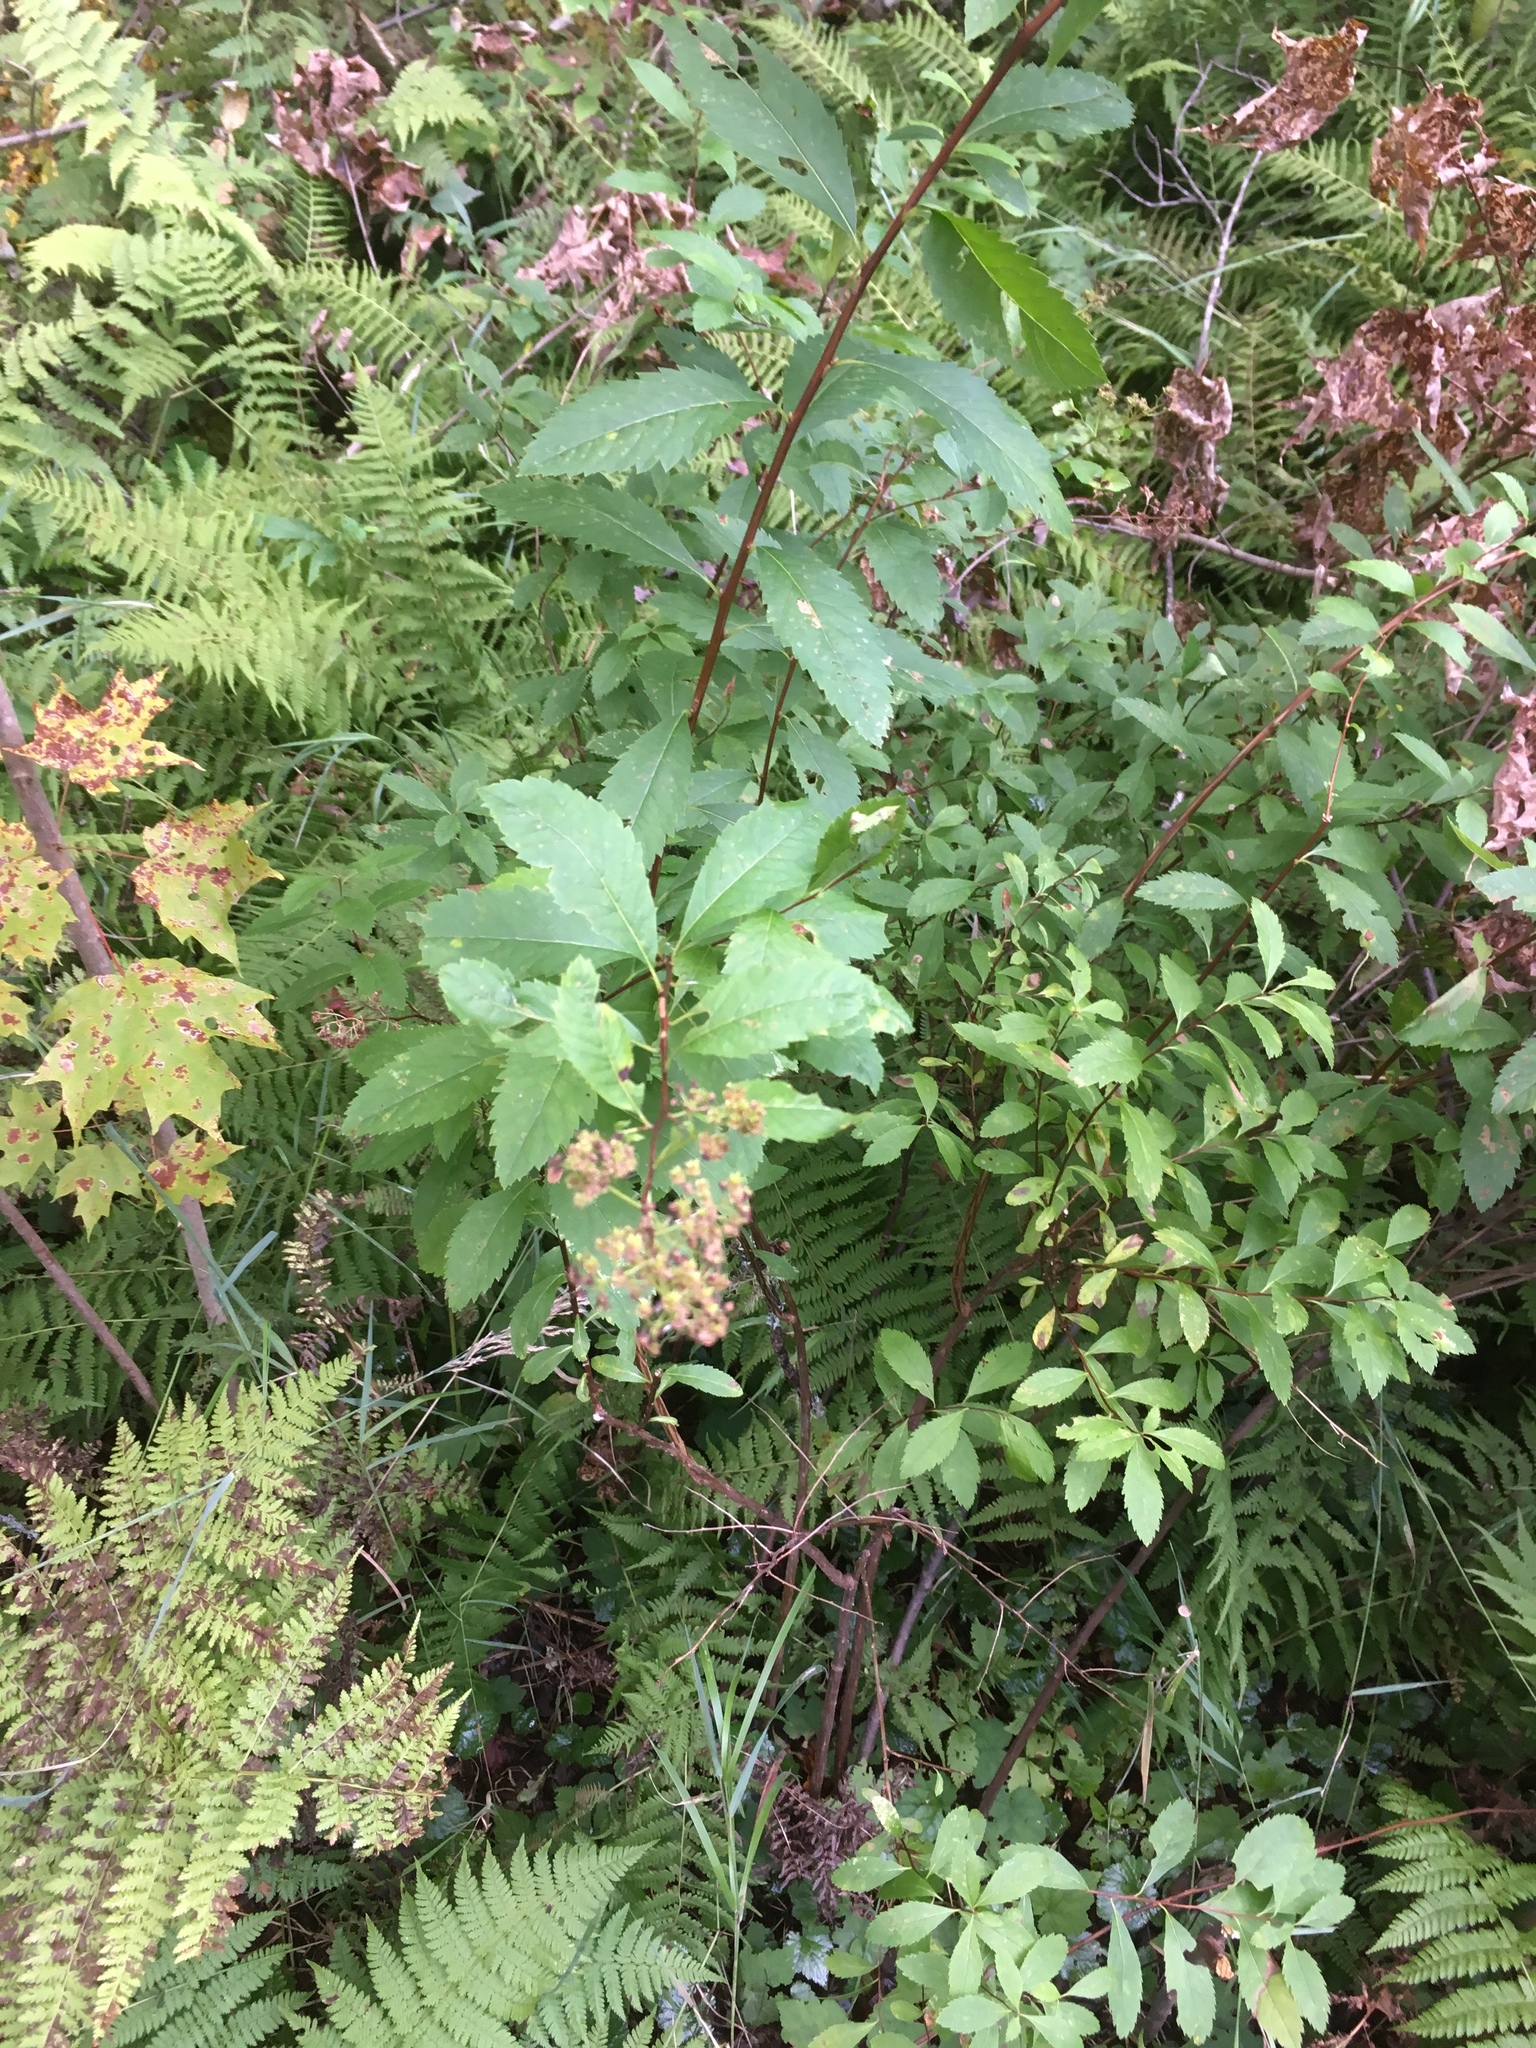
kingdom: Plantae
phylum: Tracheophyta
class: Magnoliopsida
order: Rosales
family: Rosaceae
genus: Spiraea
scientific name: Spiraea alba
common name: Pale bridewort
